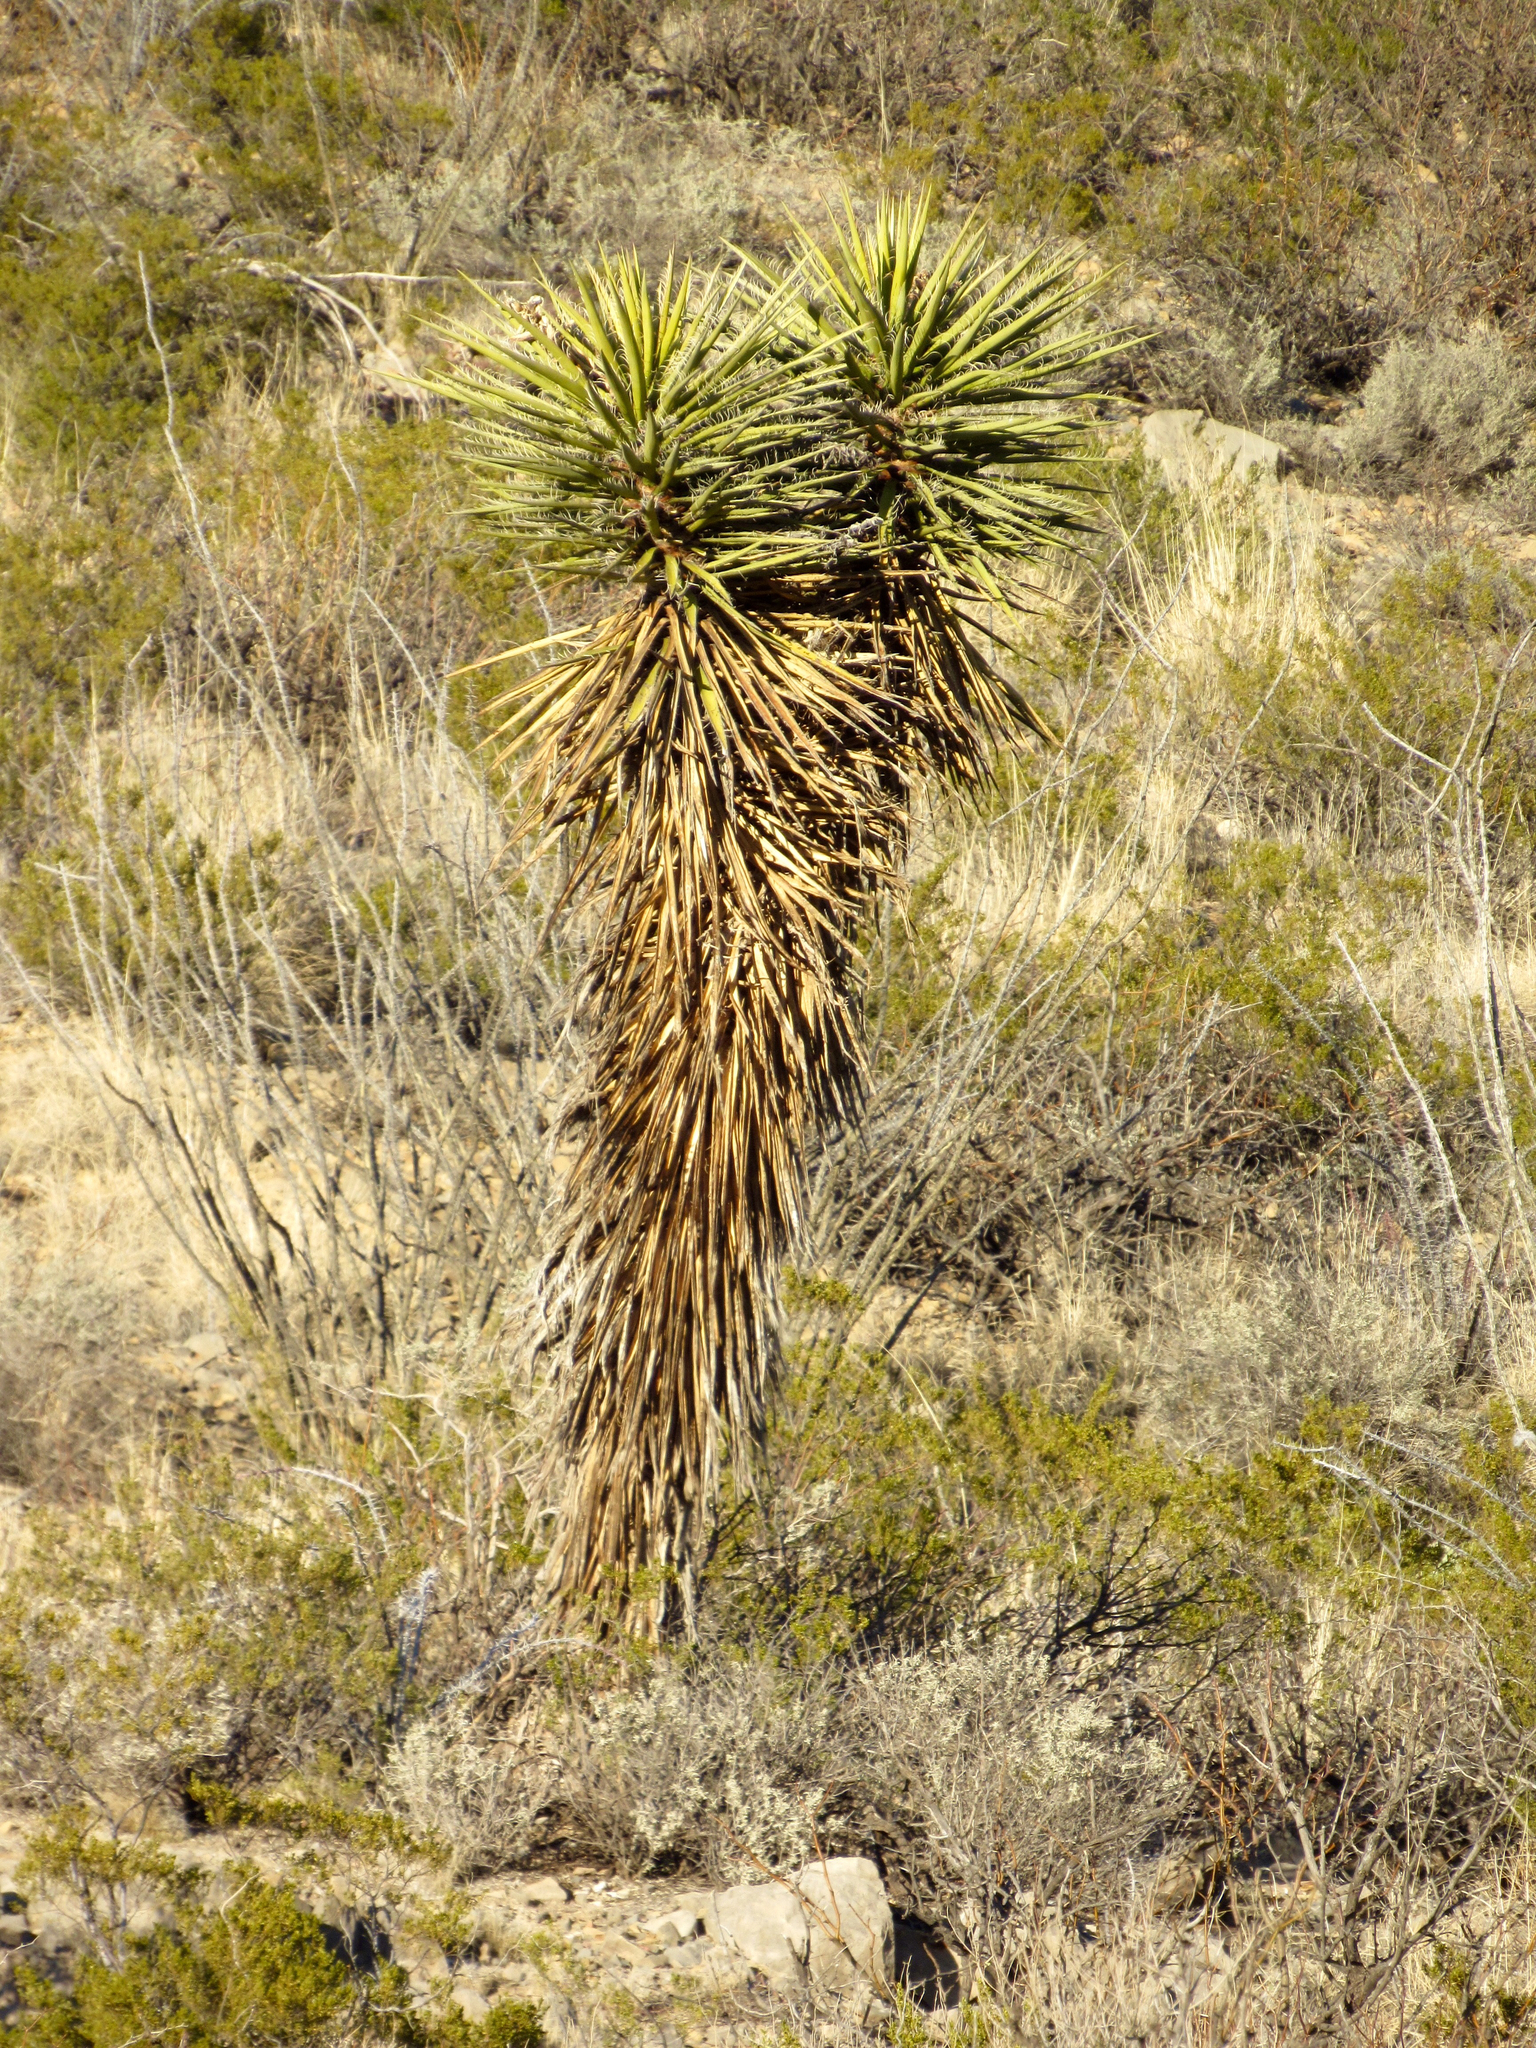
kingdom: Plantae
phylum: Tracheophyta
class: Liliopsida
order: Asparagales
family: Asparagaceae
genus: Yucca
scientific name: Yucca treculiana
